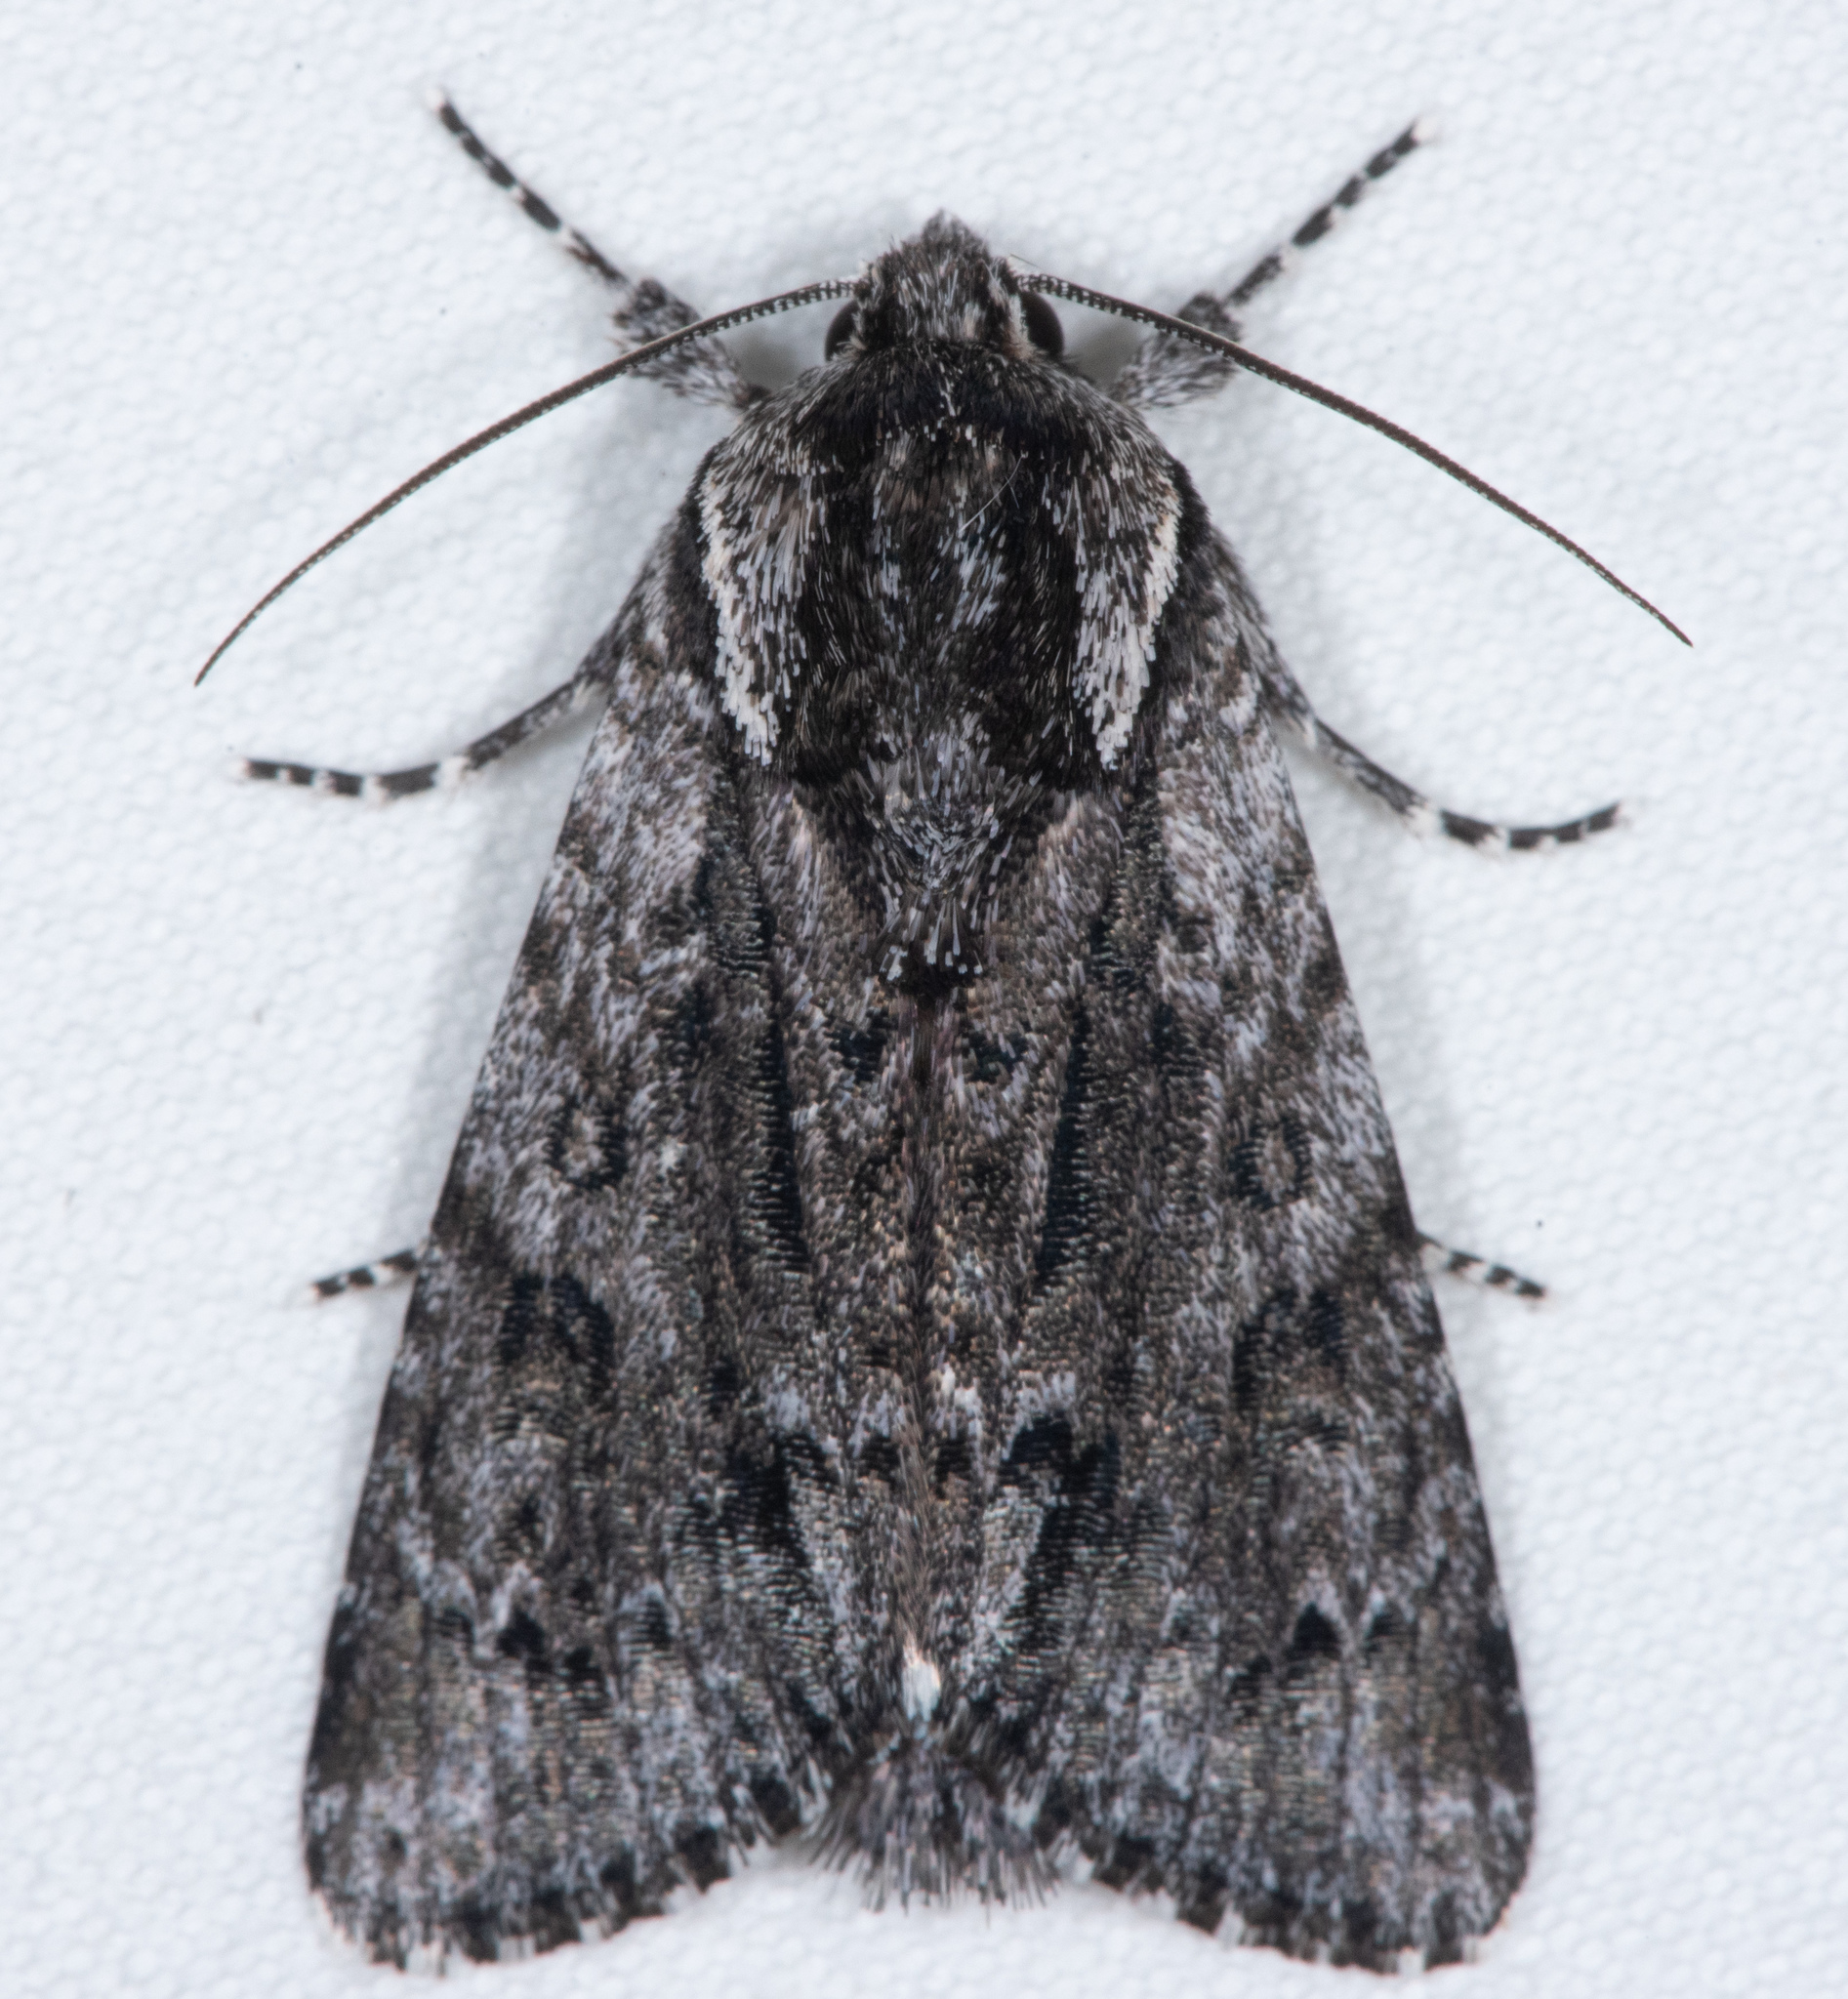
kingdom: Animalia
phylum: Arthropoda
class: Insecta
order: Lepidoptera
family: Noctuidae
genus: Acronicta
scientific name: Acronicta perdita
